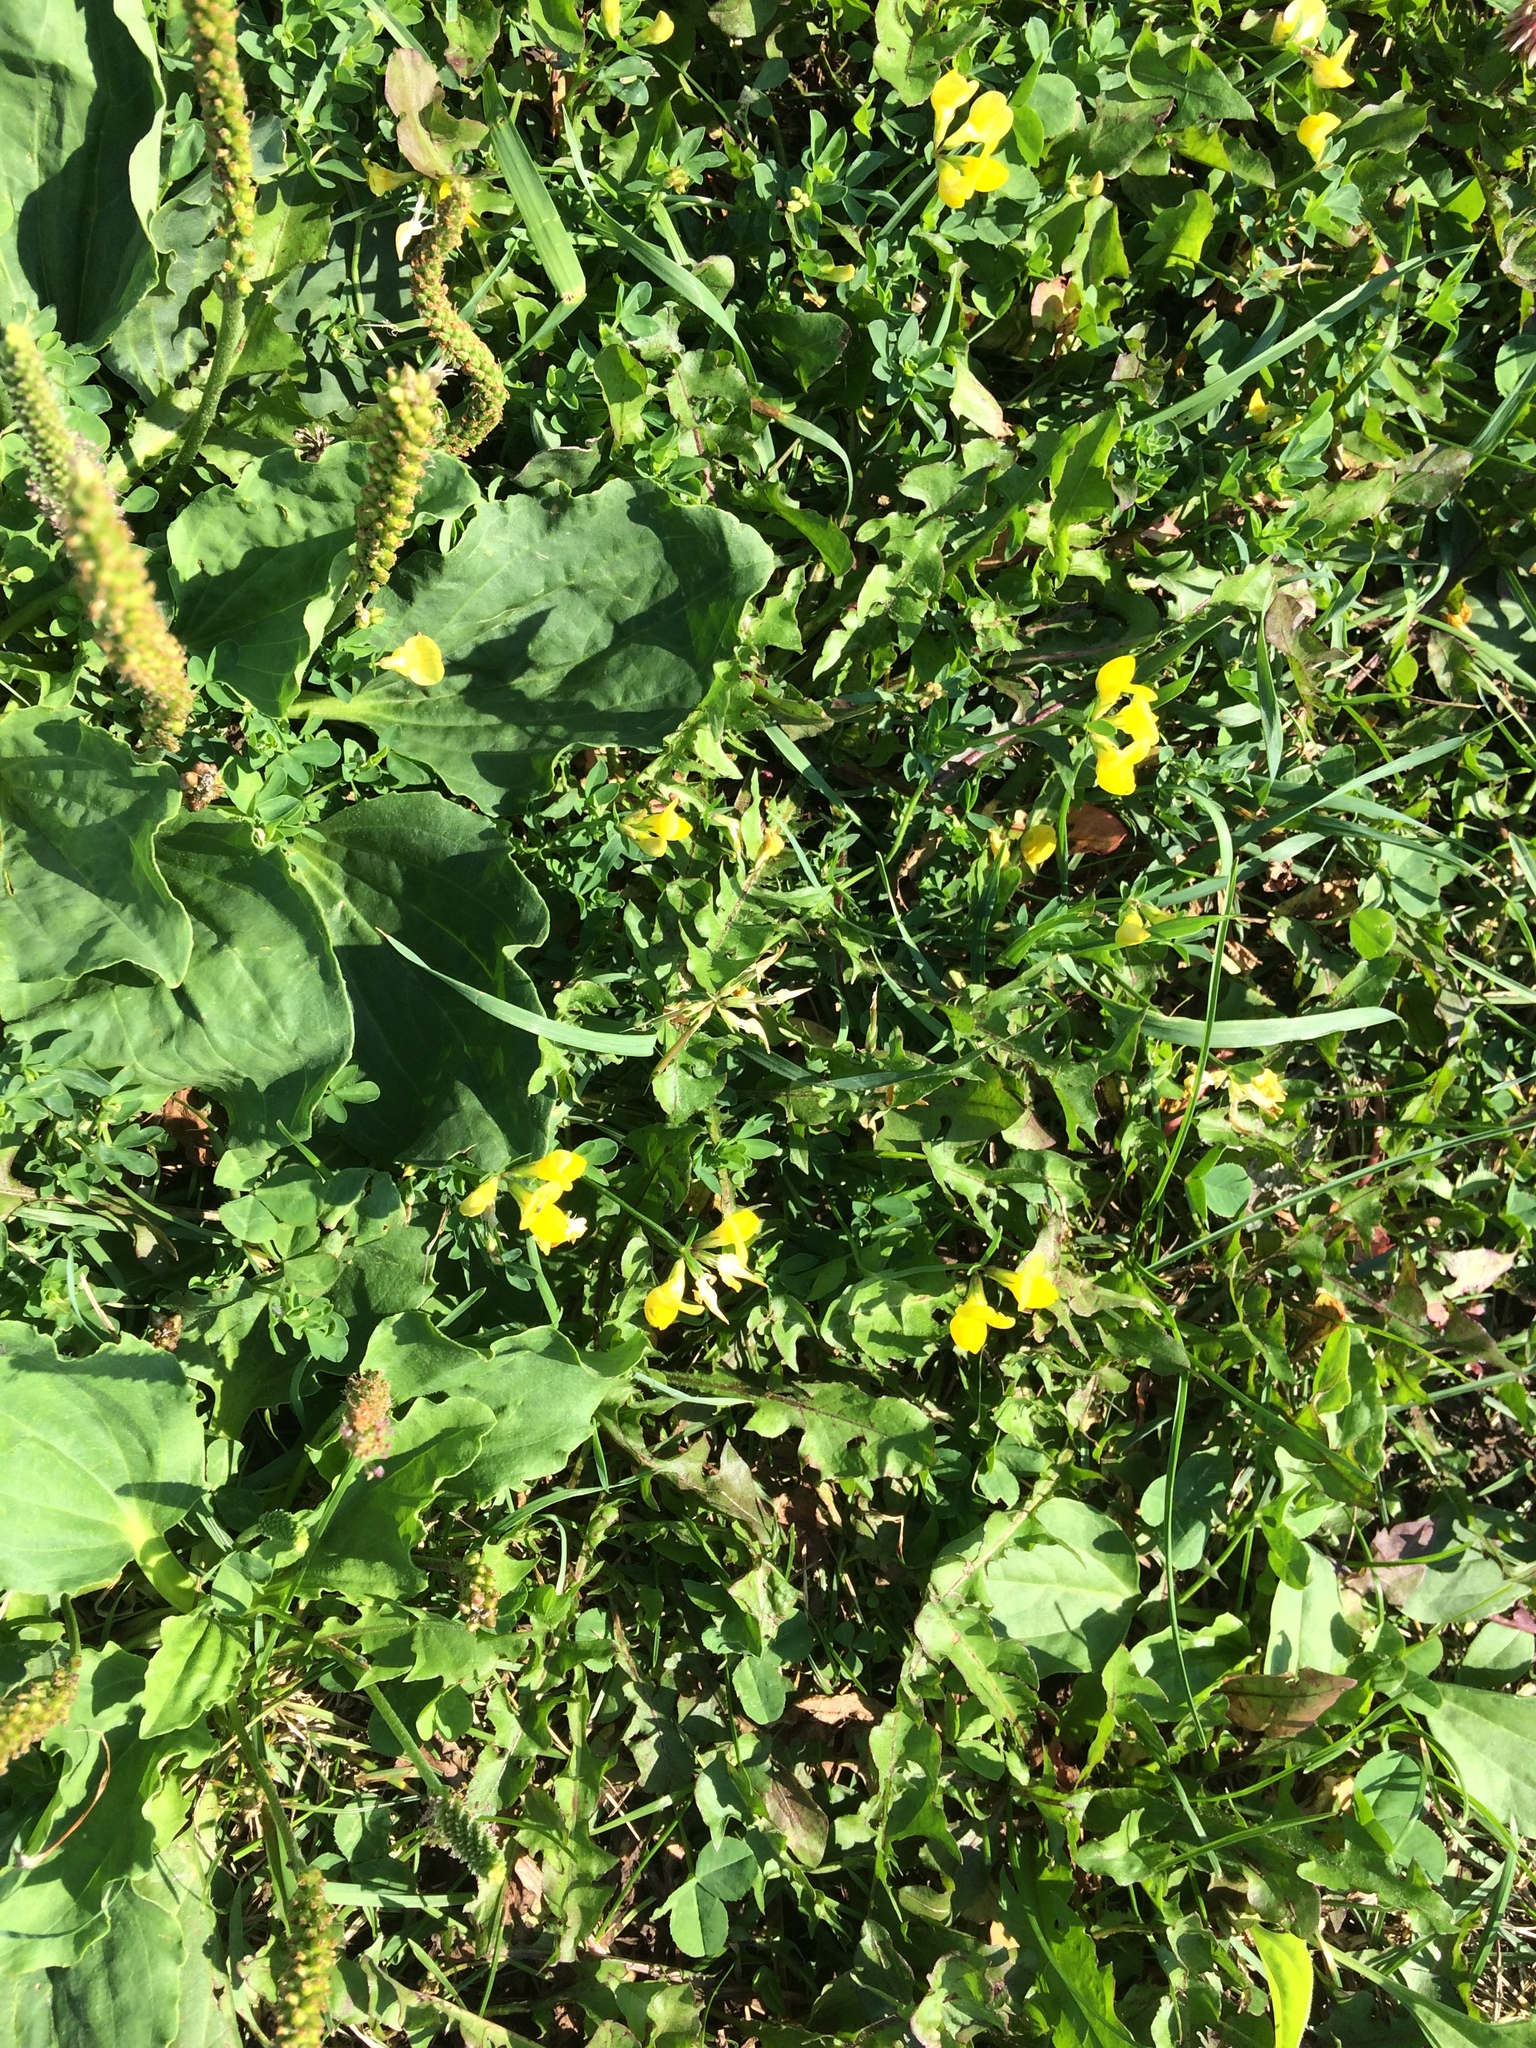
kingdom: Plantae
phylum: Tracheophyta
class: Magnoliopsida
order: Fabales
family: Fabaceae
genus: Lotus
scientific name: Lotus corniculatus
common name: Common bird's-foot-trefoil
